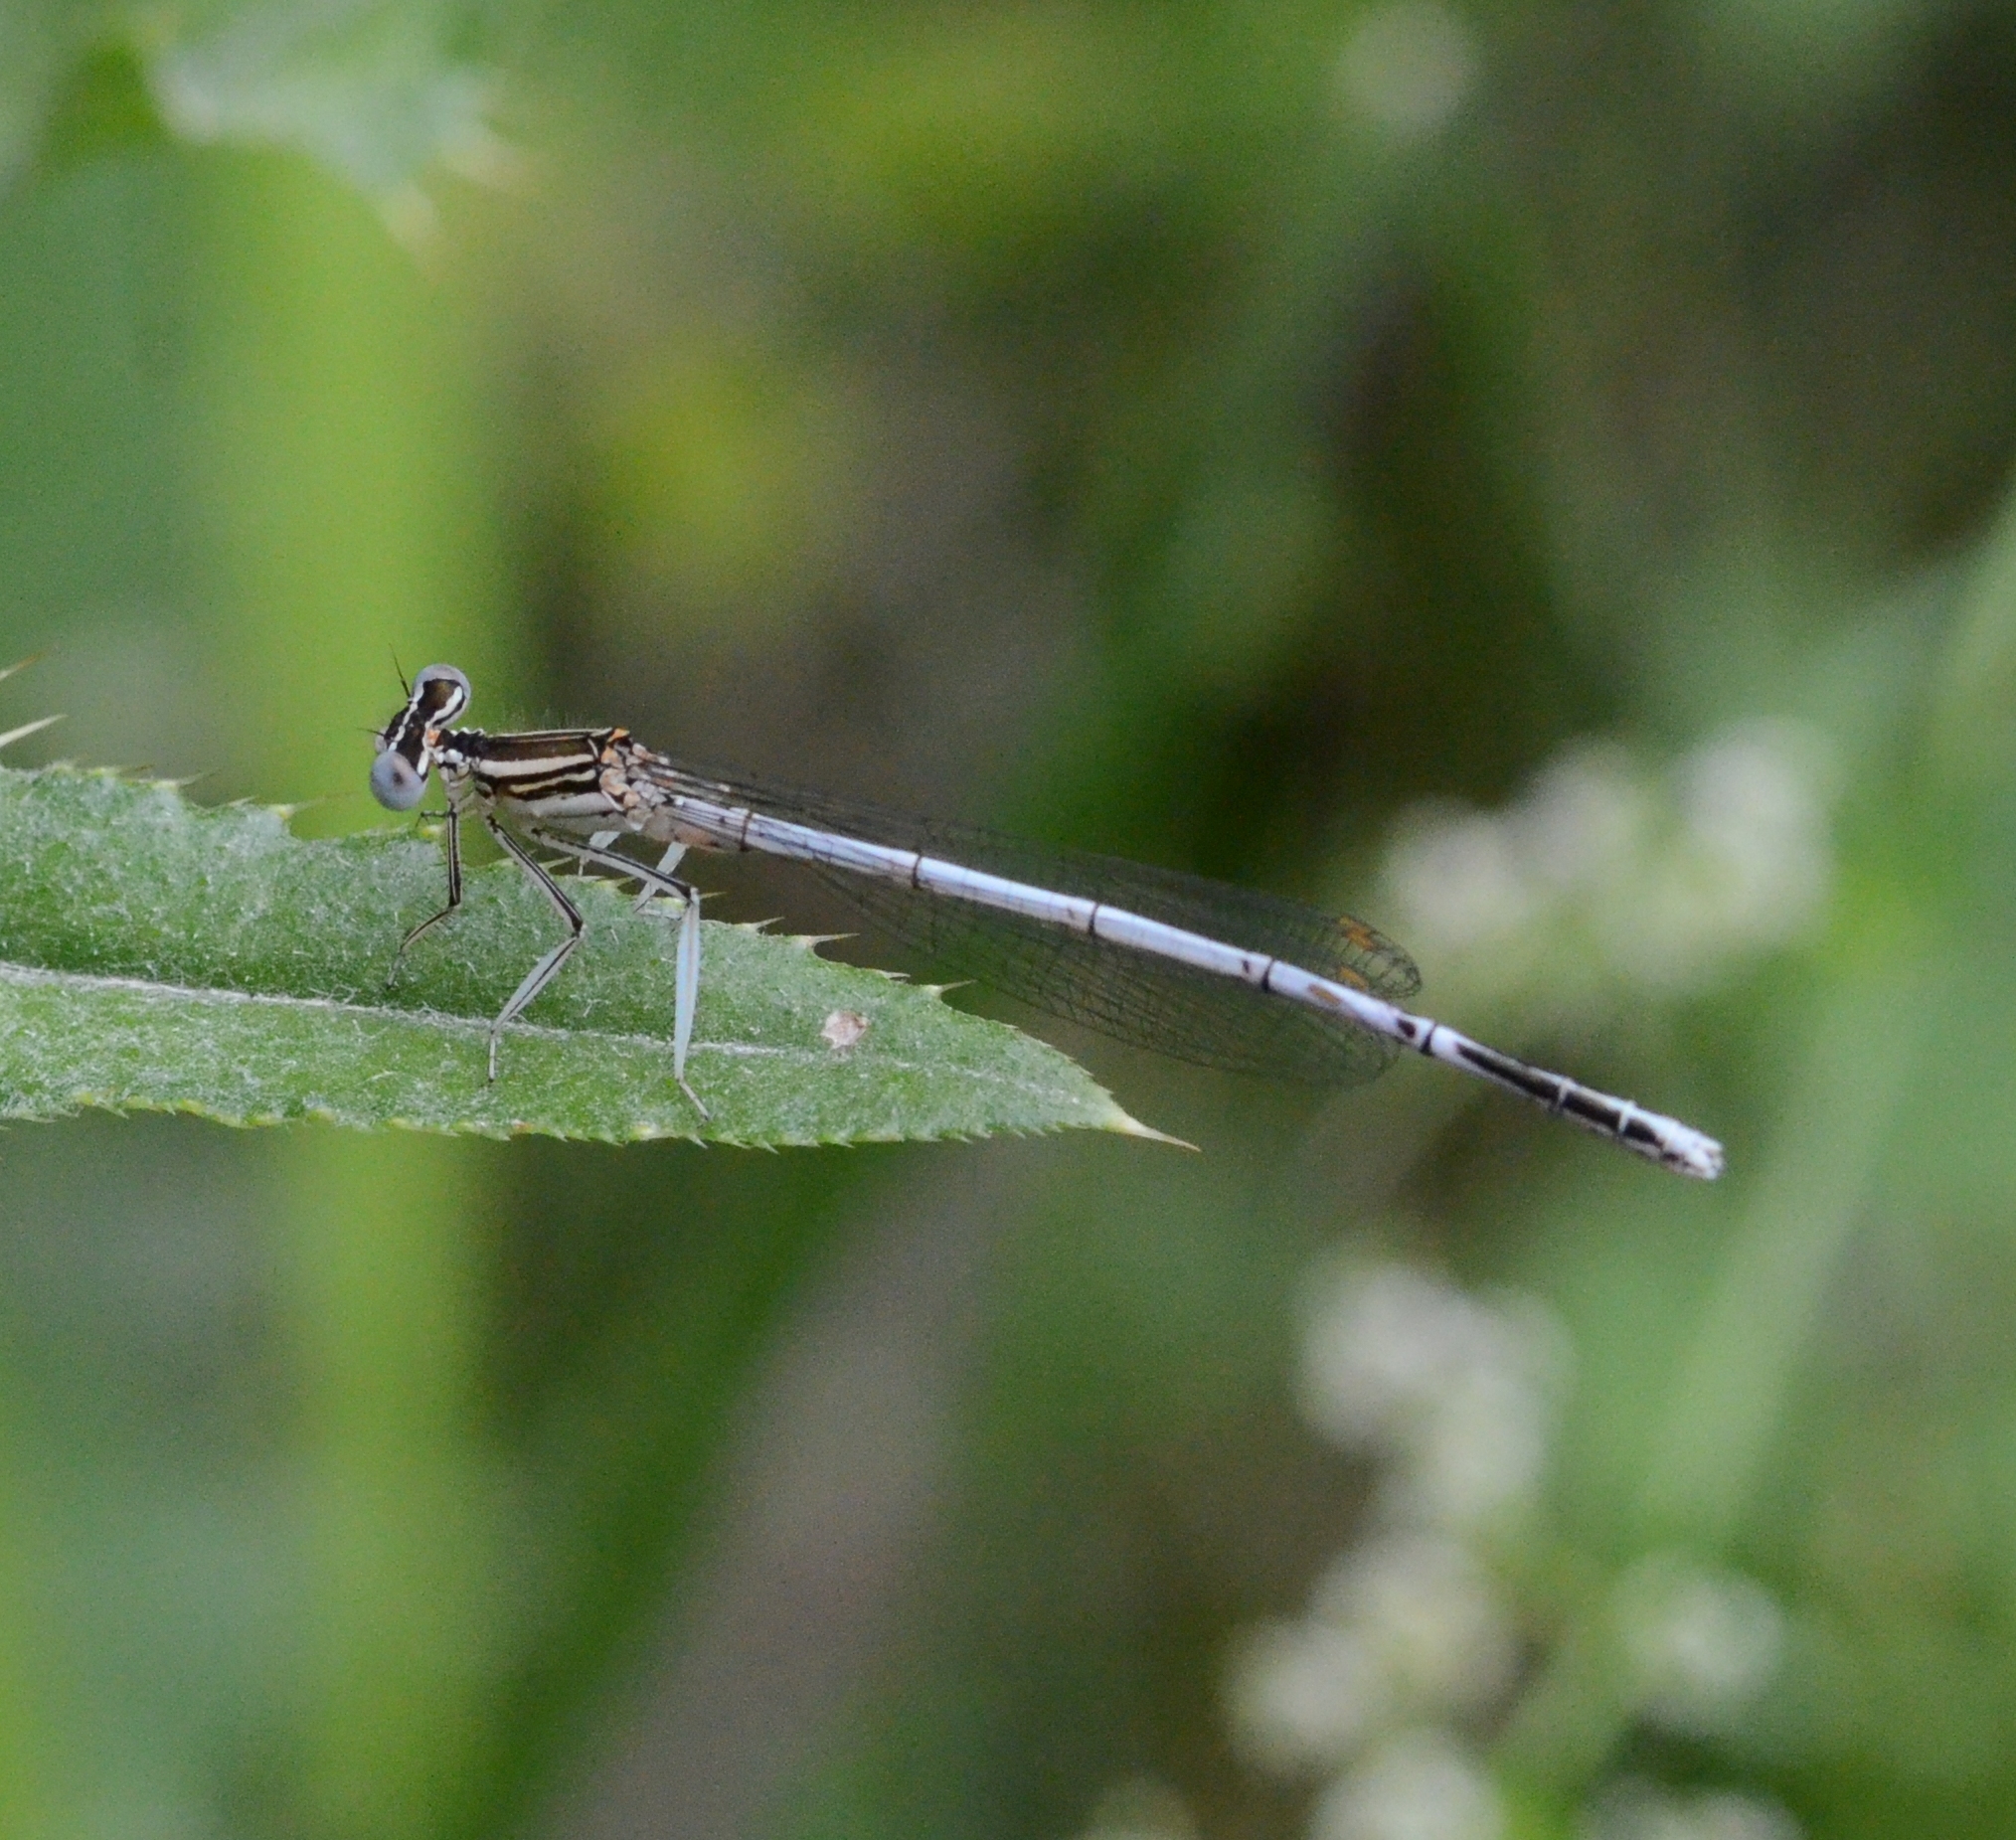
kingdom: Animalia
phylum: Arthropoda
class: Insecta
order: Odonata
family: Platycnemididae
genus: Platycnemis
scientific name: Platycnemis pennipes
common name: White-legged damselfly
